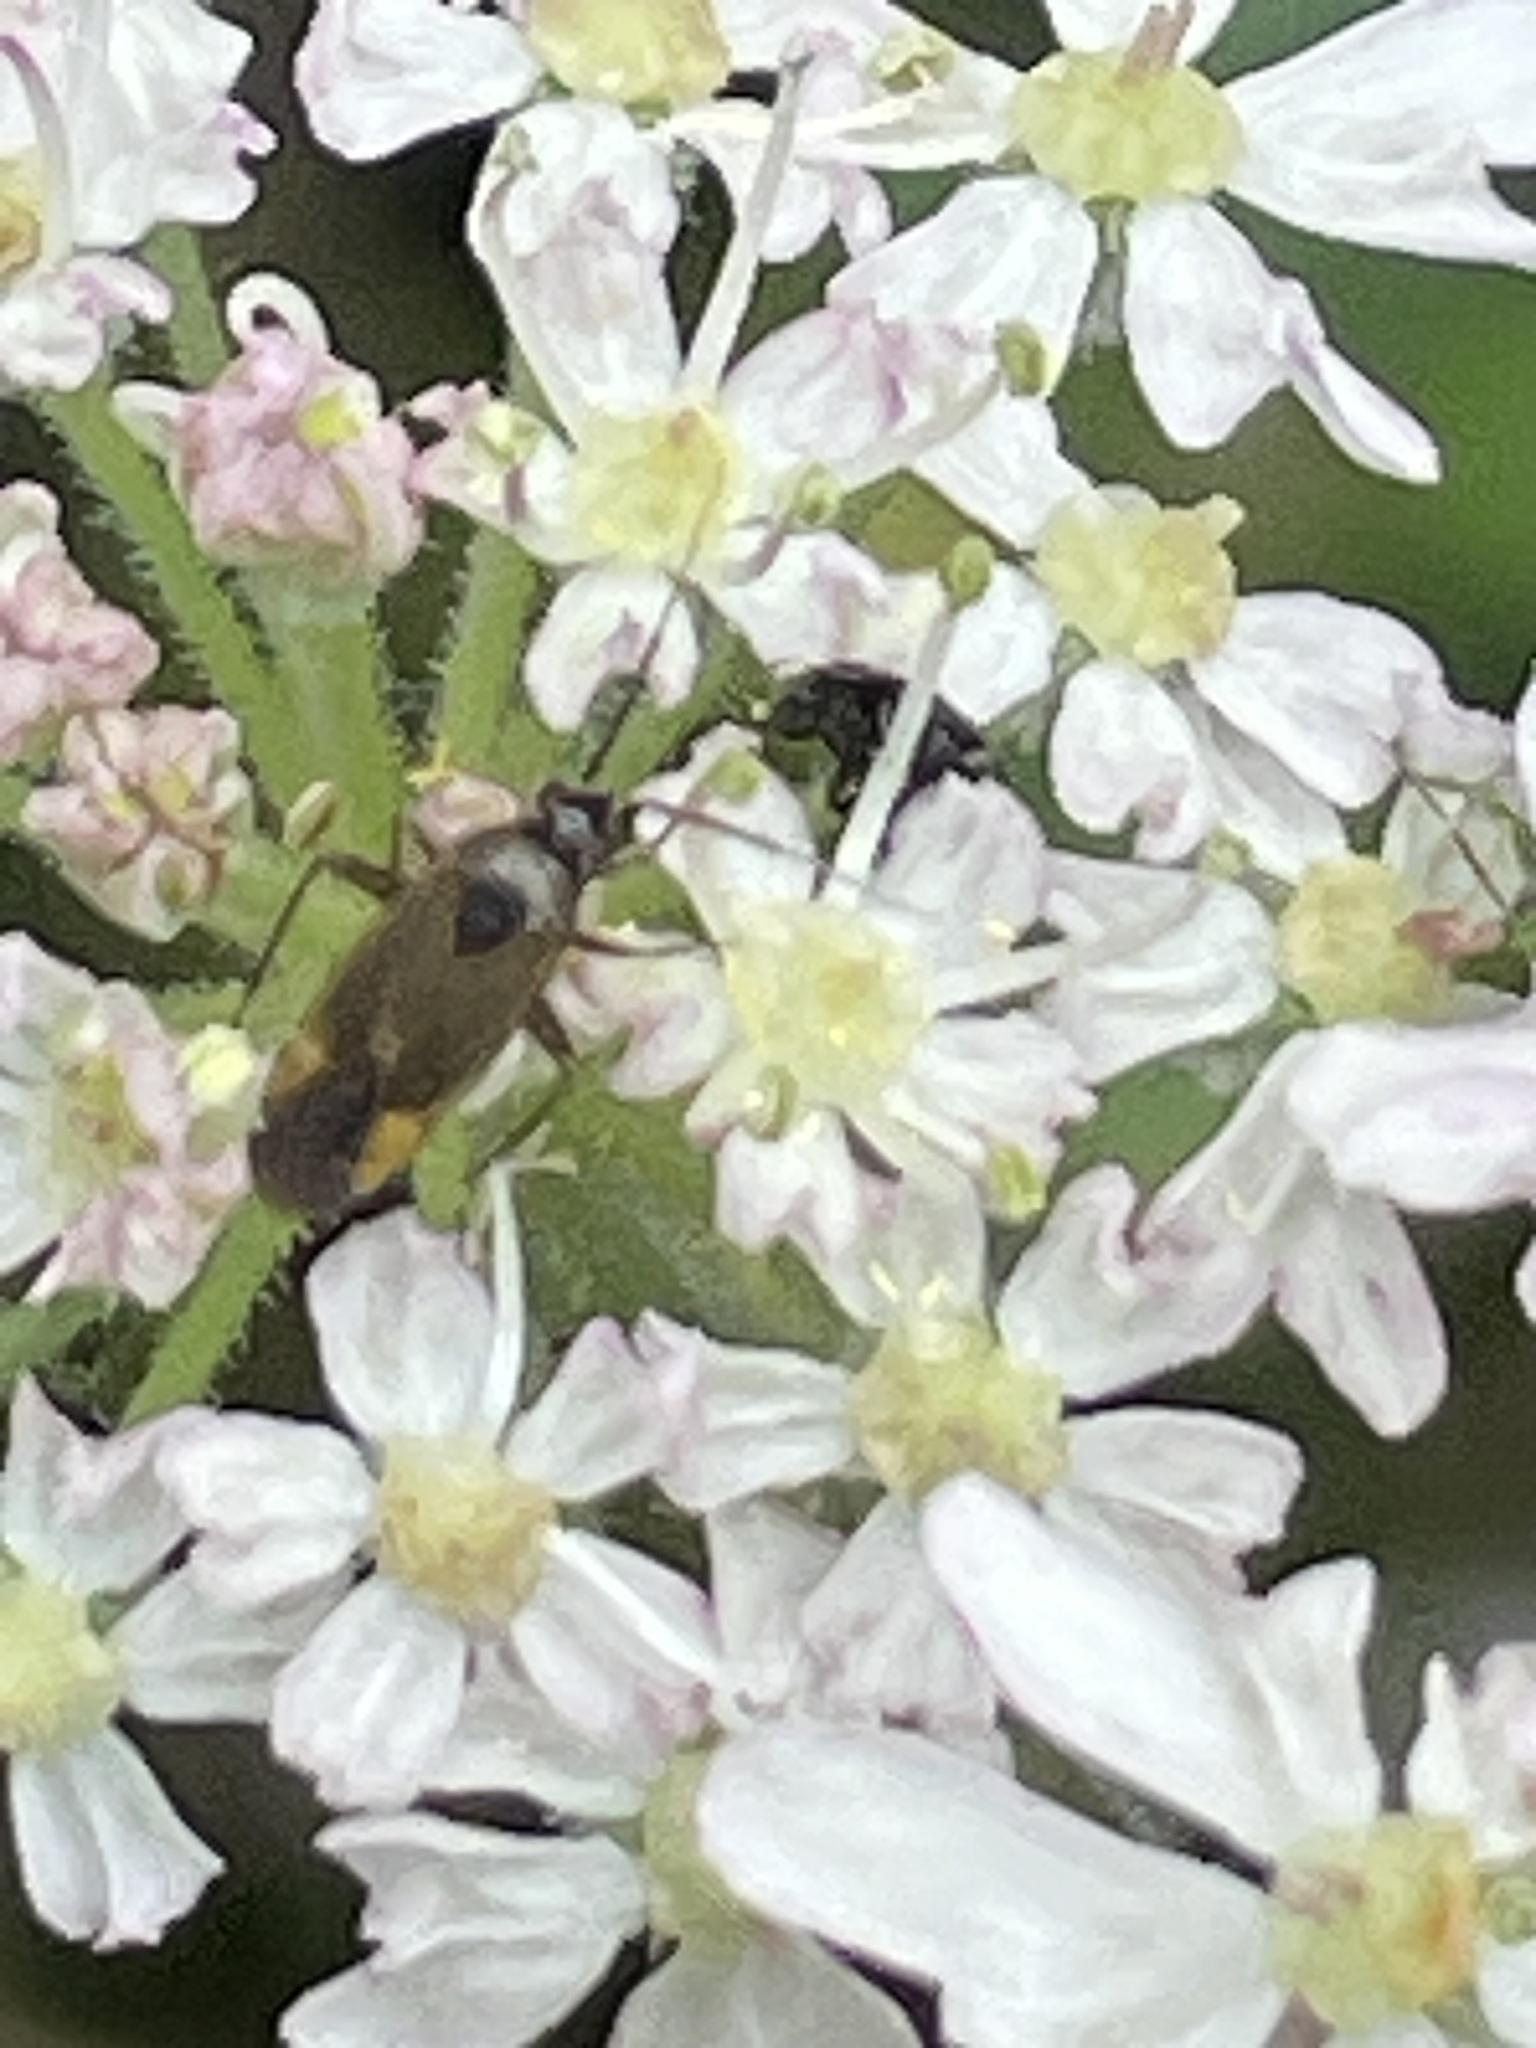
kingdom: Animalia
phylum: Arthropoda
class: Insecta
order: Hemiptera
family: Miridae
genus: Plagiognathus
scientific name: Plagiognathus arbustorum
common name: Plant bug
